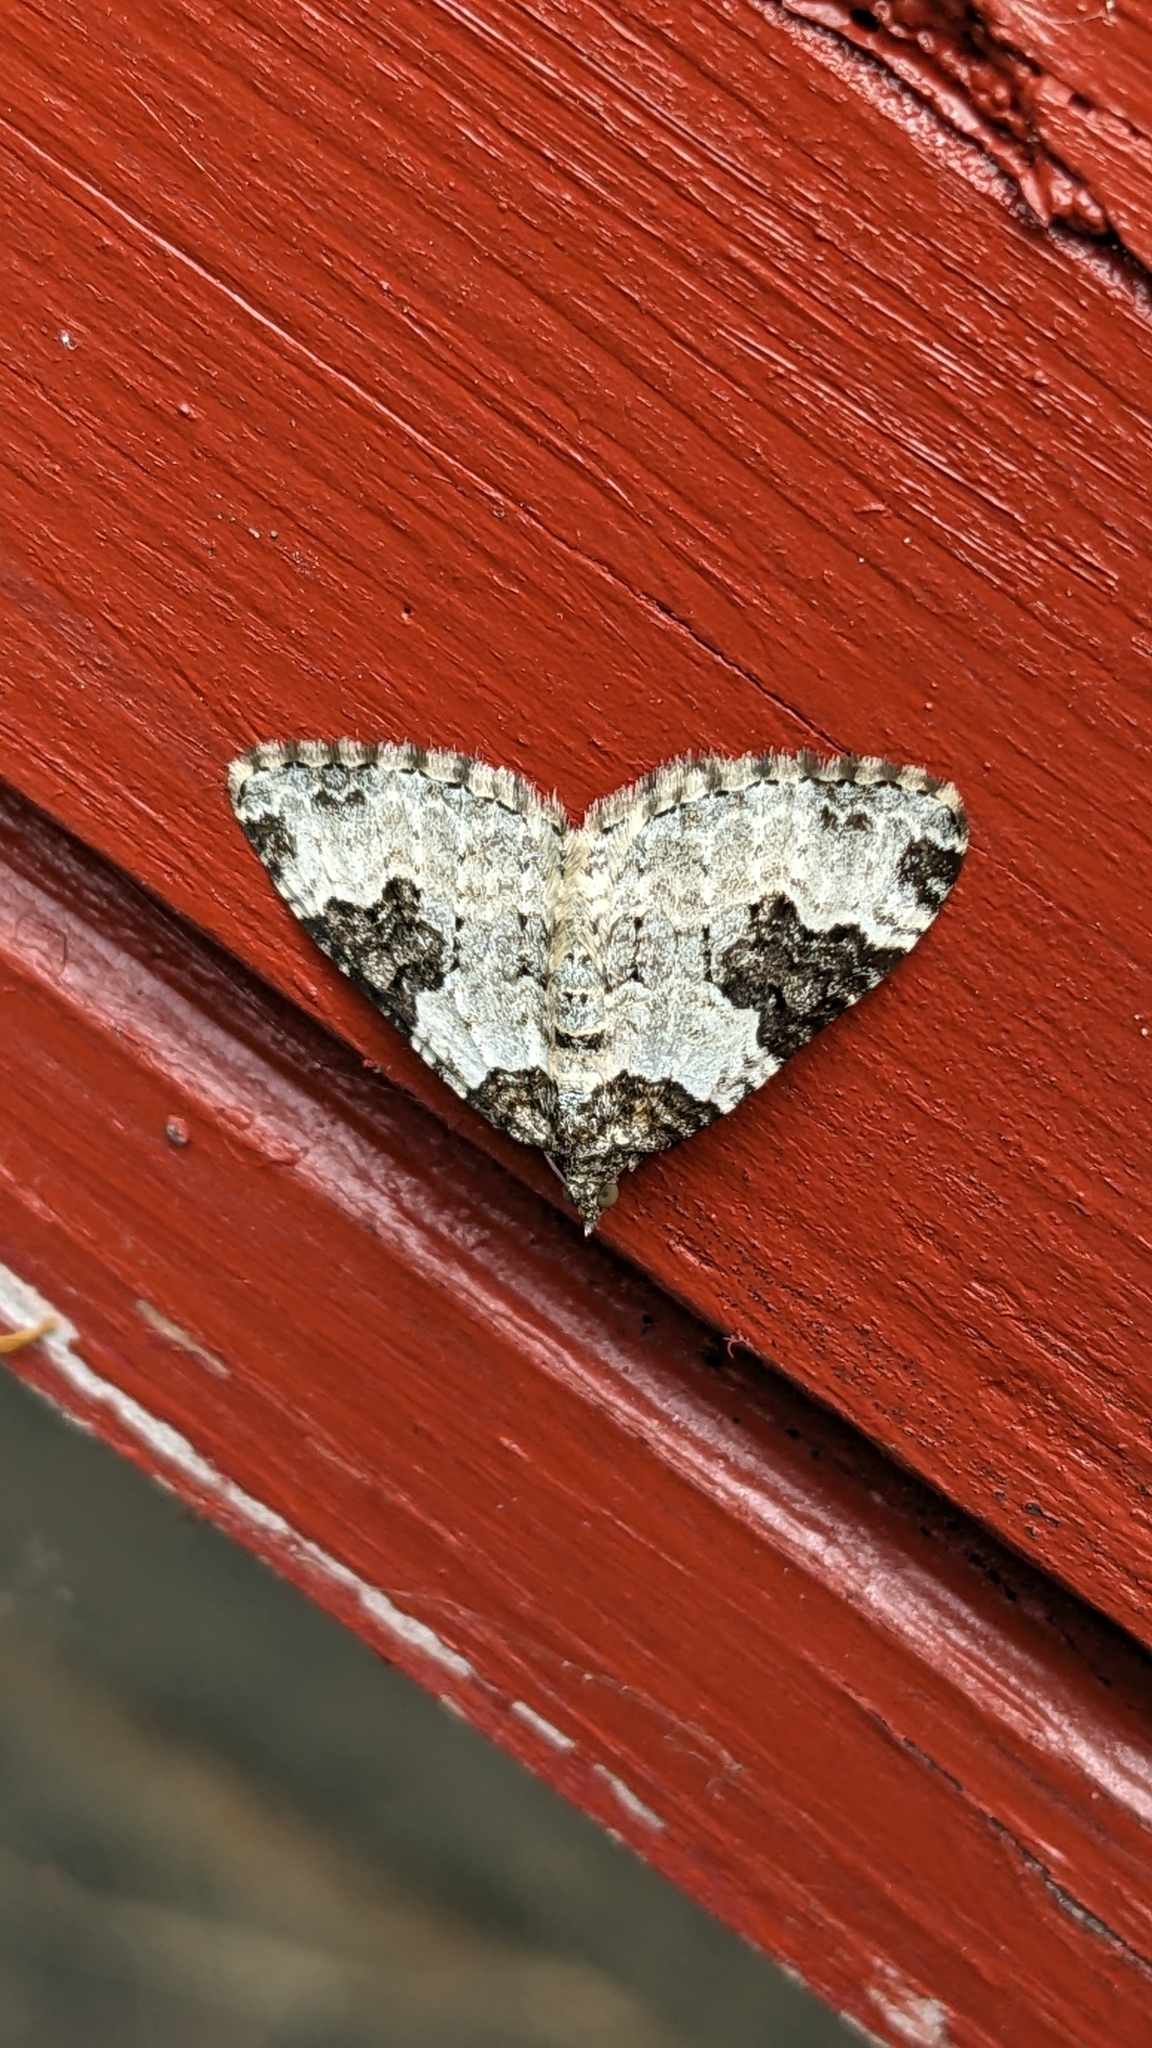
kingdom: Animalia
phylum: Arthropoda
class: Insecta
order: Lepidoptera
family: Geometridae
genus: Xanthorhoe
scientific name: Xanthorhoe fluctuata
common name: Garden carpet
